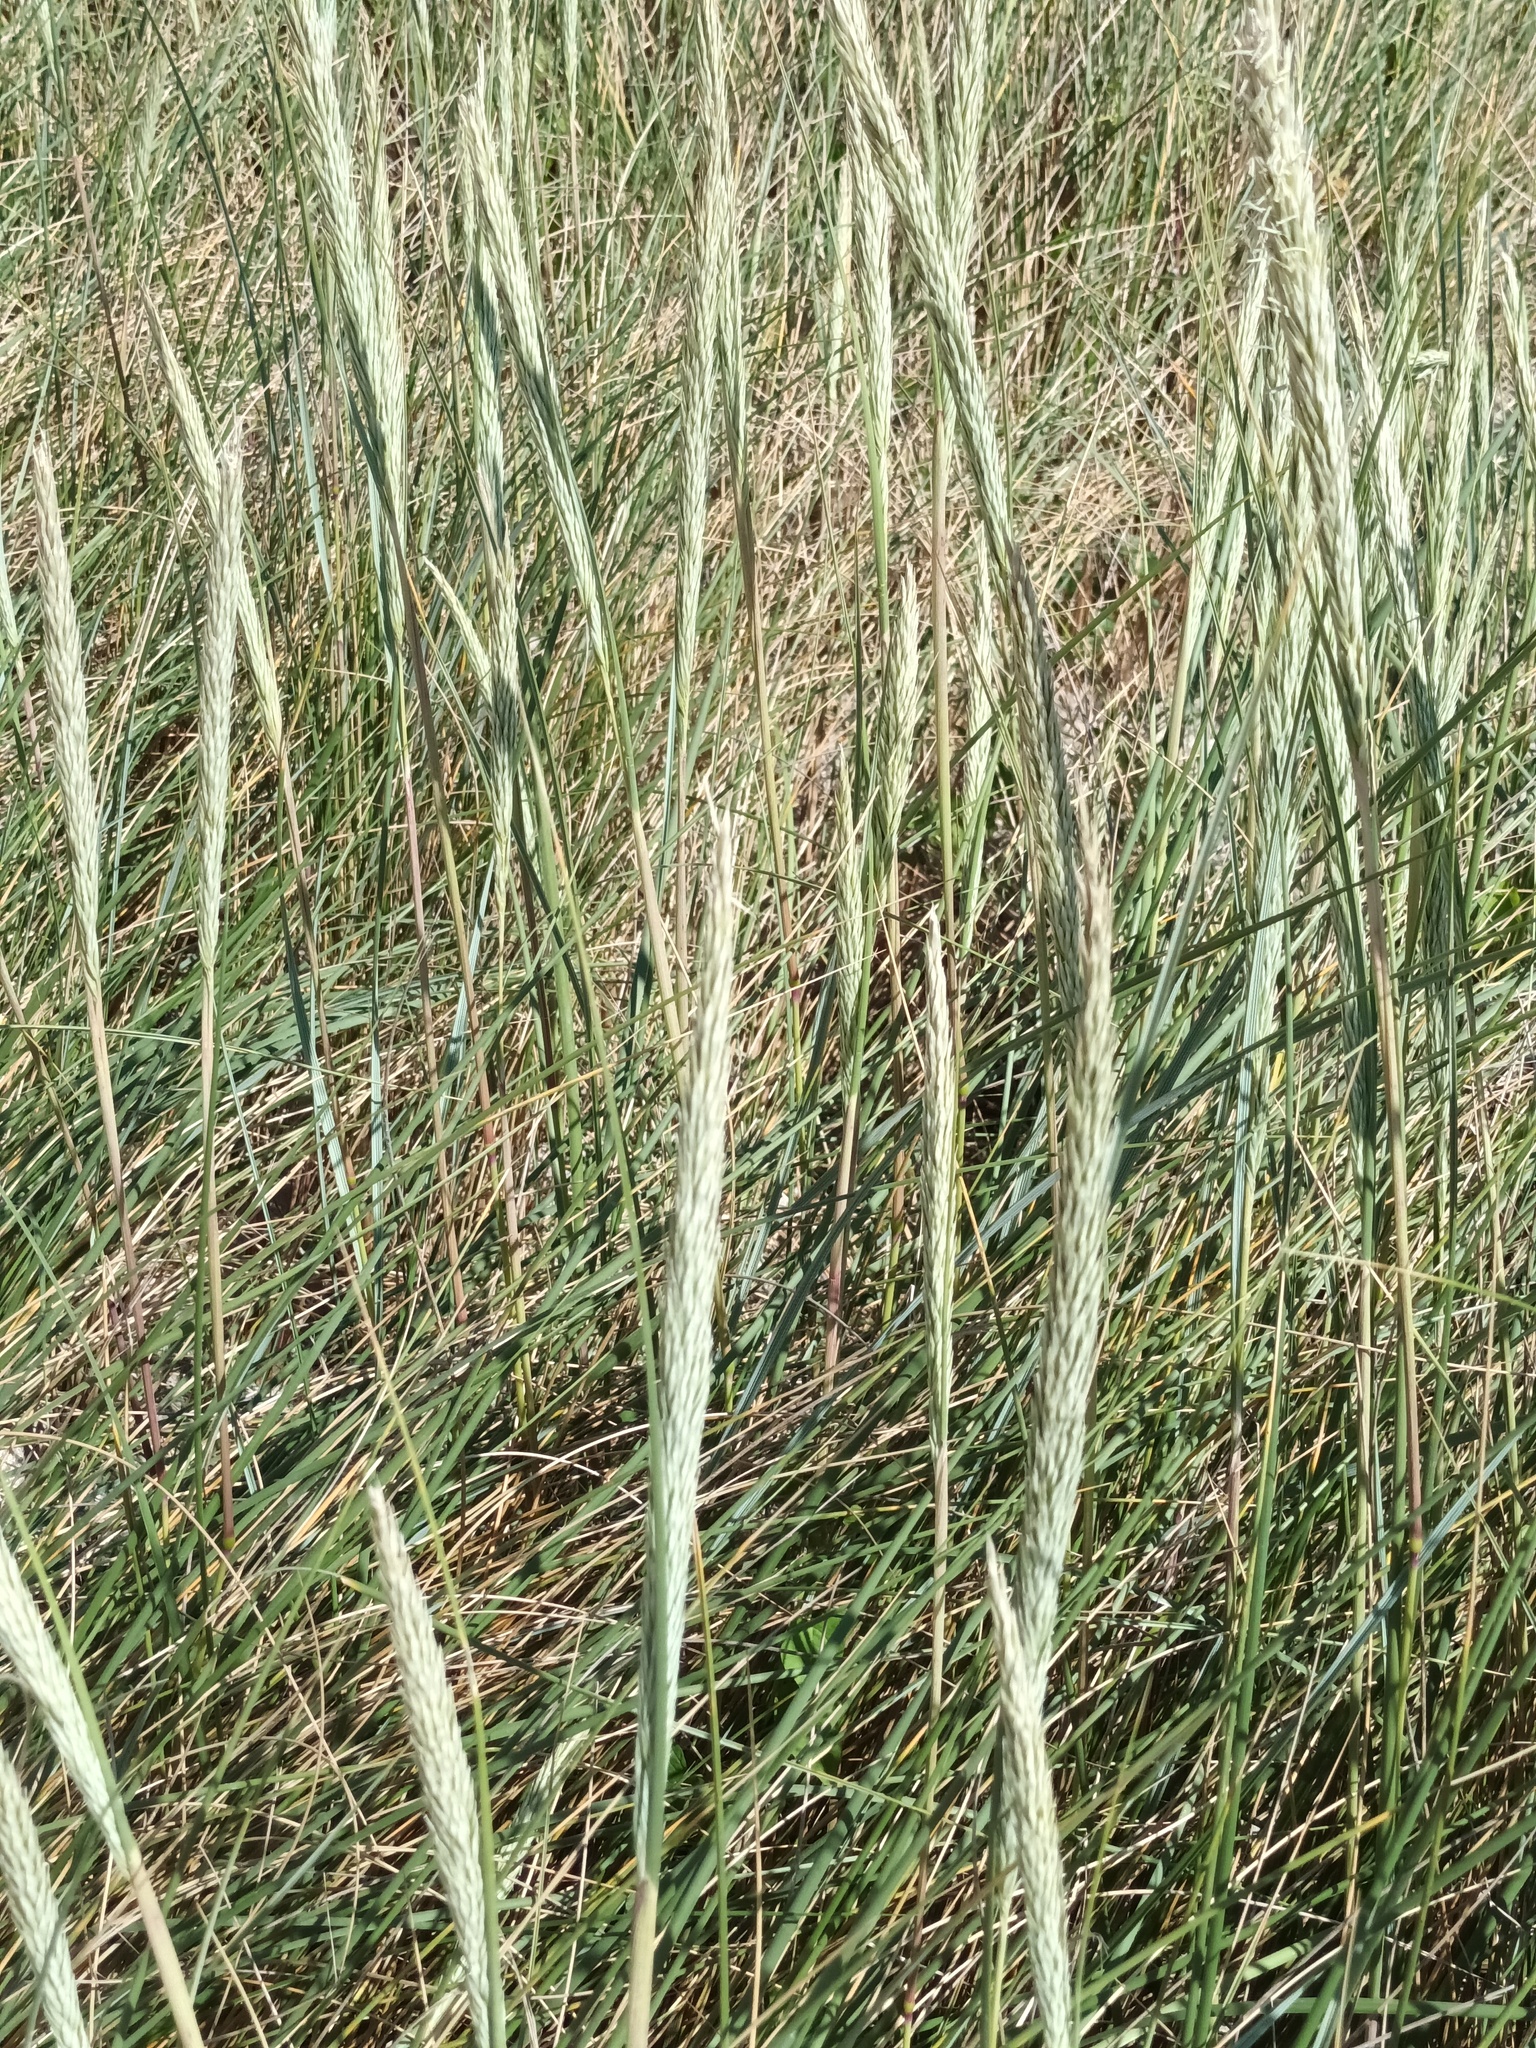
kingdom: Plantae
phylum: Tracheophyta
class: Liliopsida
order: Poales
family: Poaceae
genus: Calamagrostis
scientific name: Calamagrostis arenaria
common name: European beachgrass
